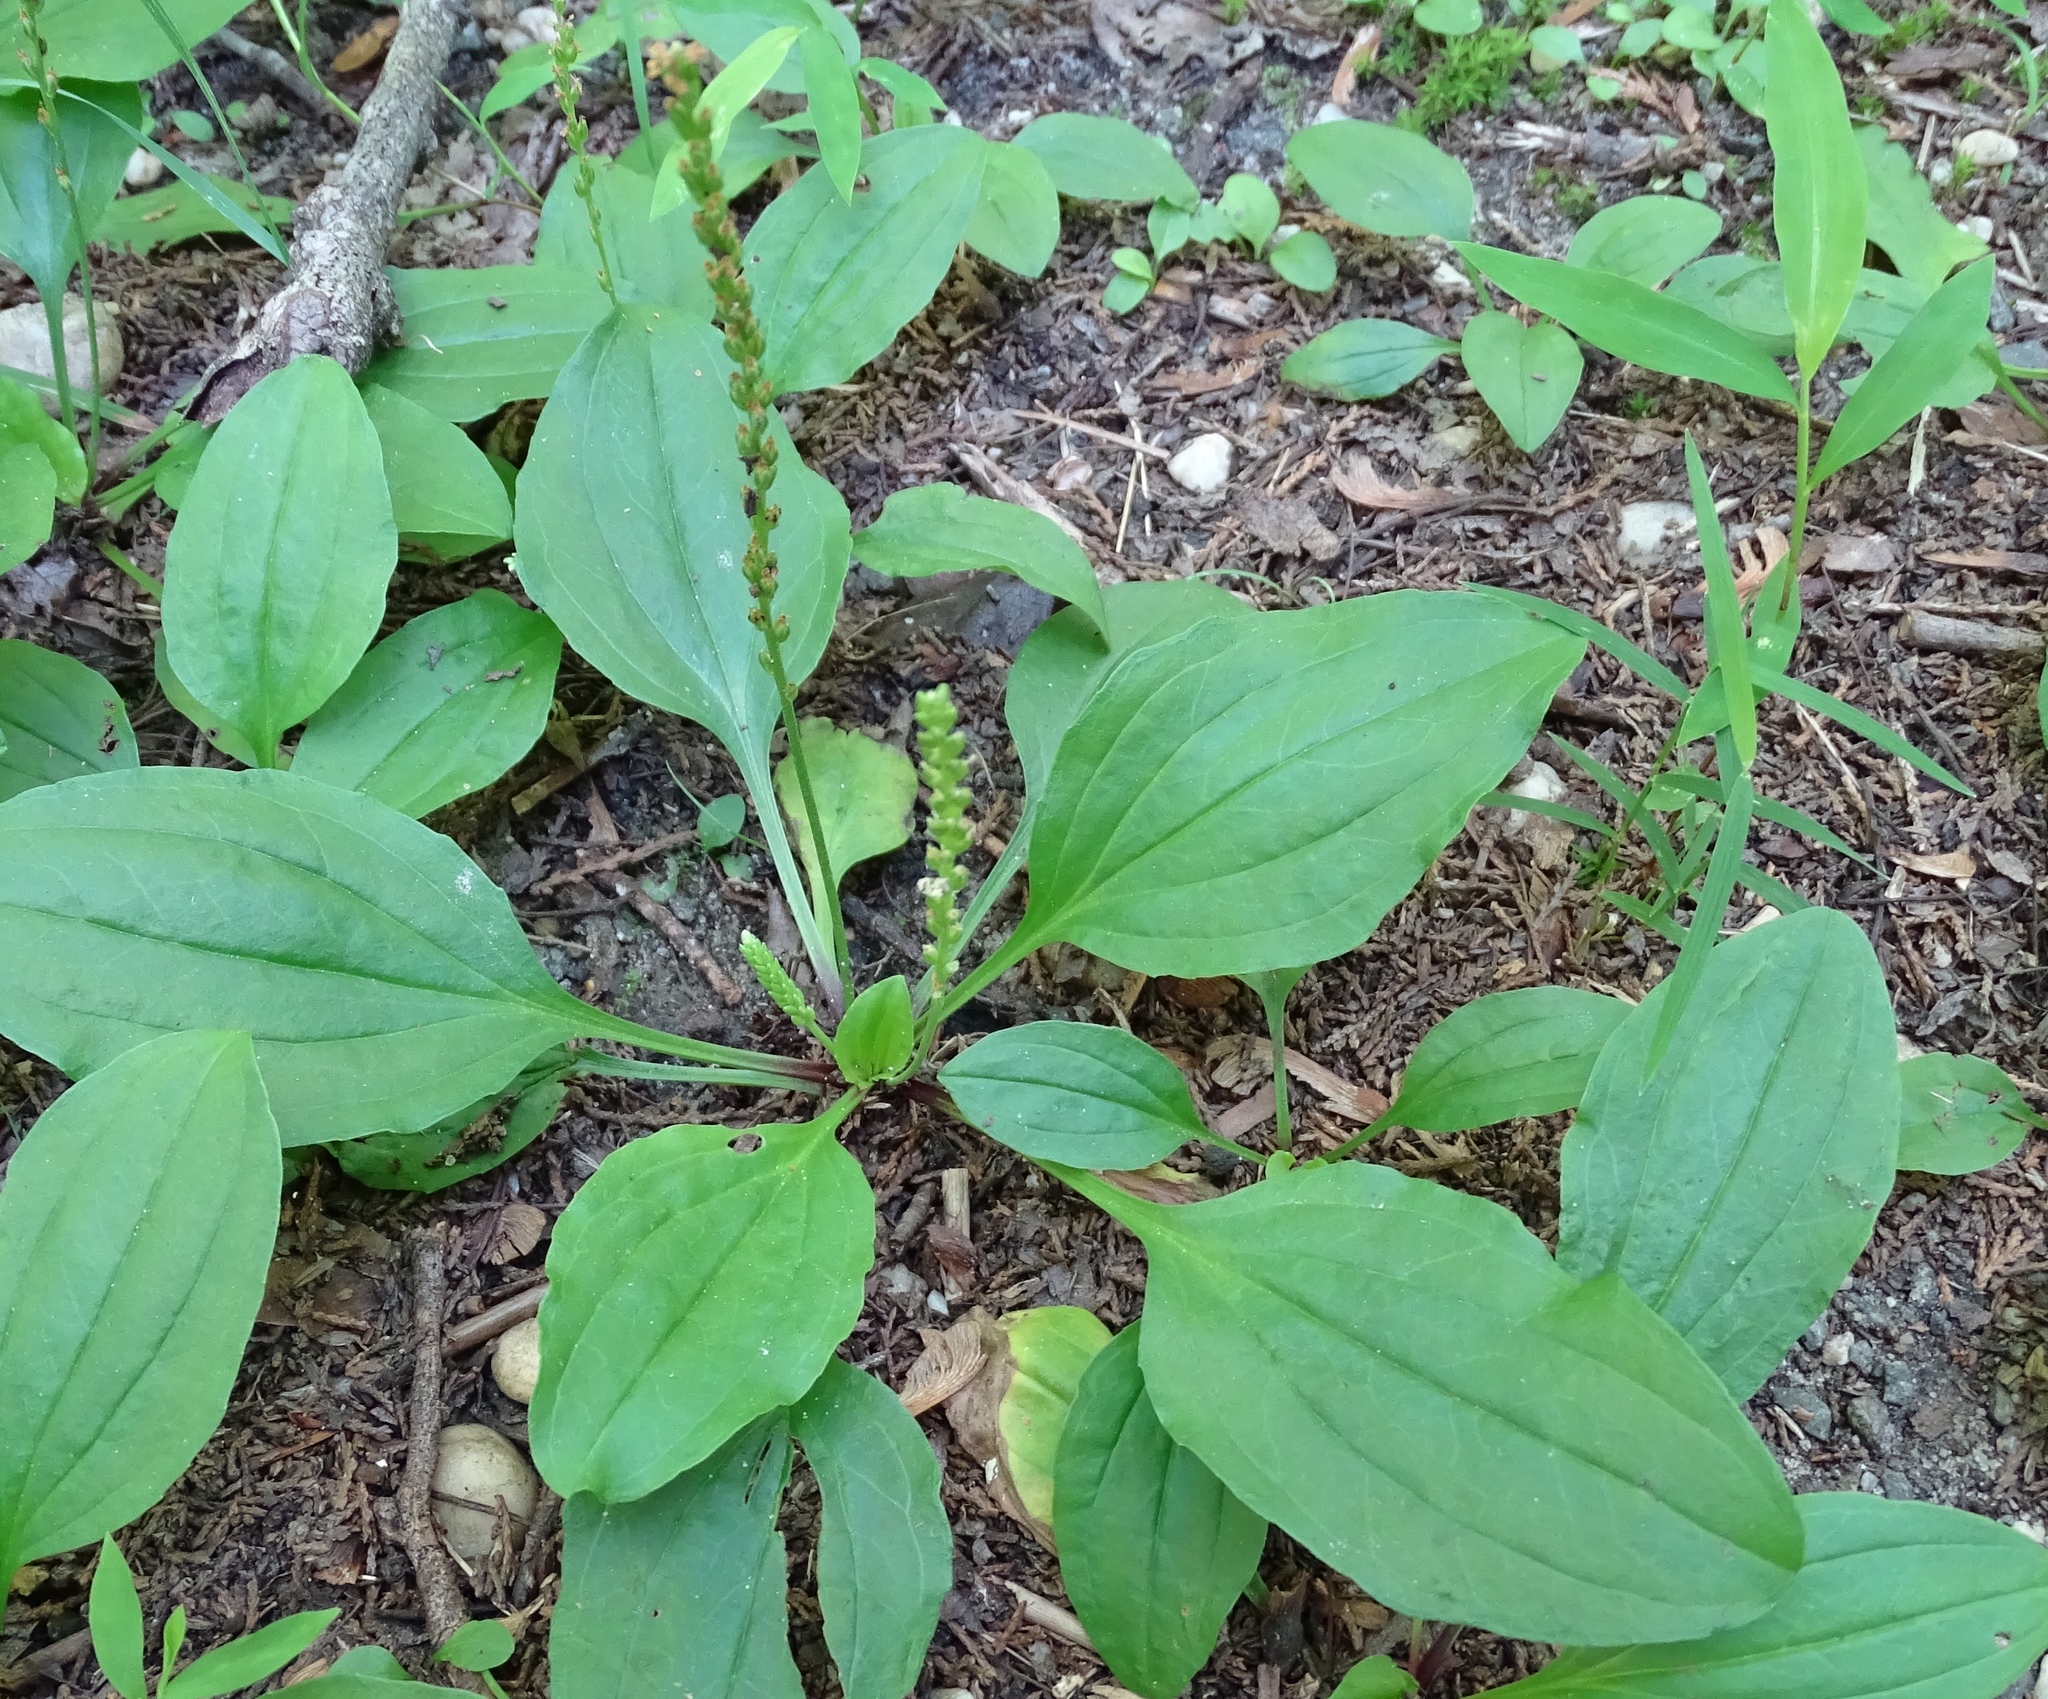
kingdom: Plantae
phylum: Tracheophyta
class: Magnoliopsida
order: Lamiales
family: Plantaginaceae
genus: Plantago
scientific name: Plantago major
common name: Common plantain
